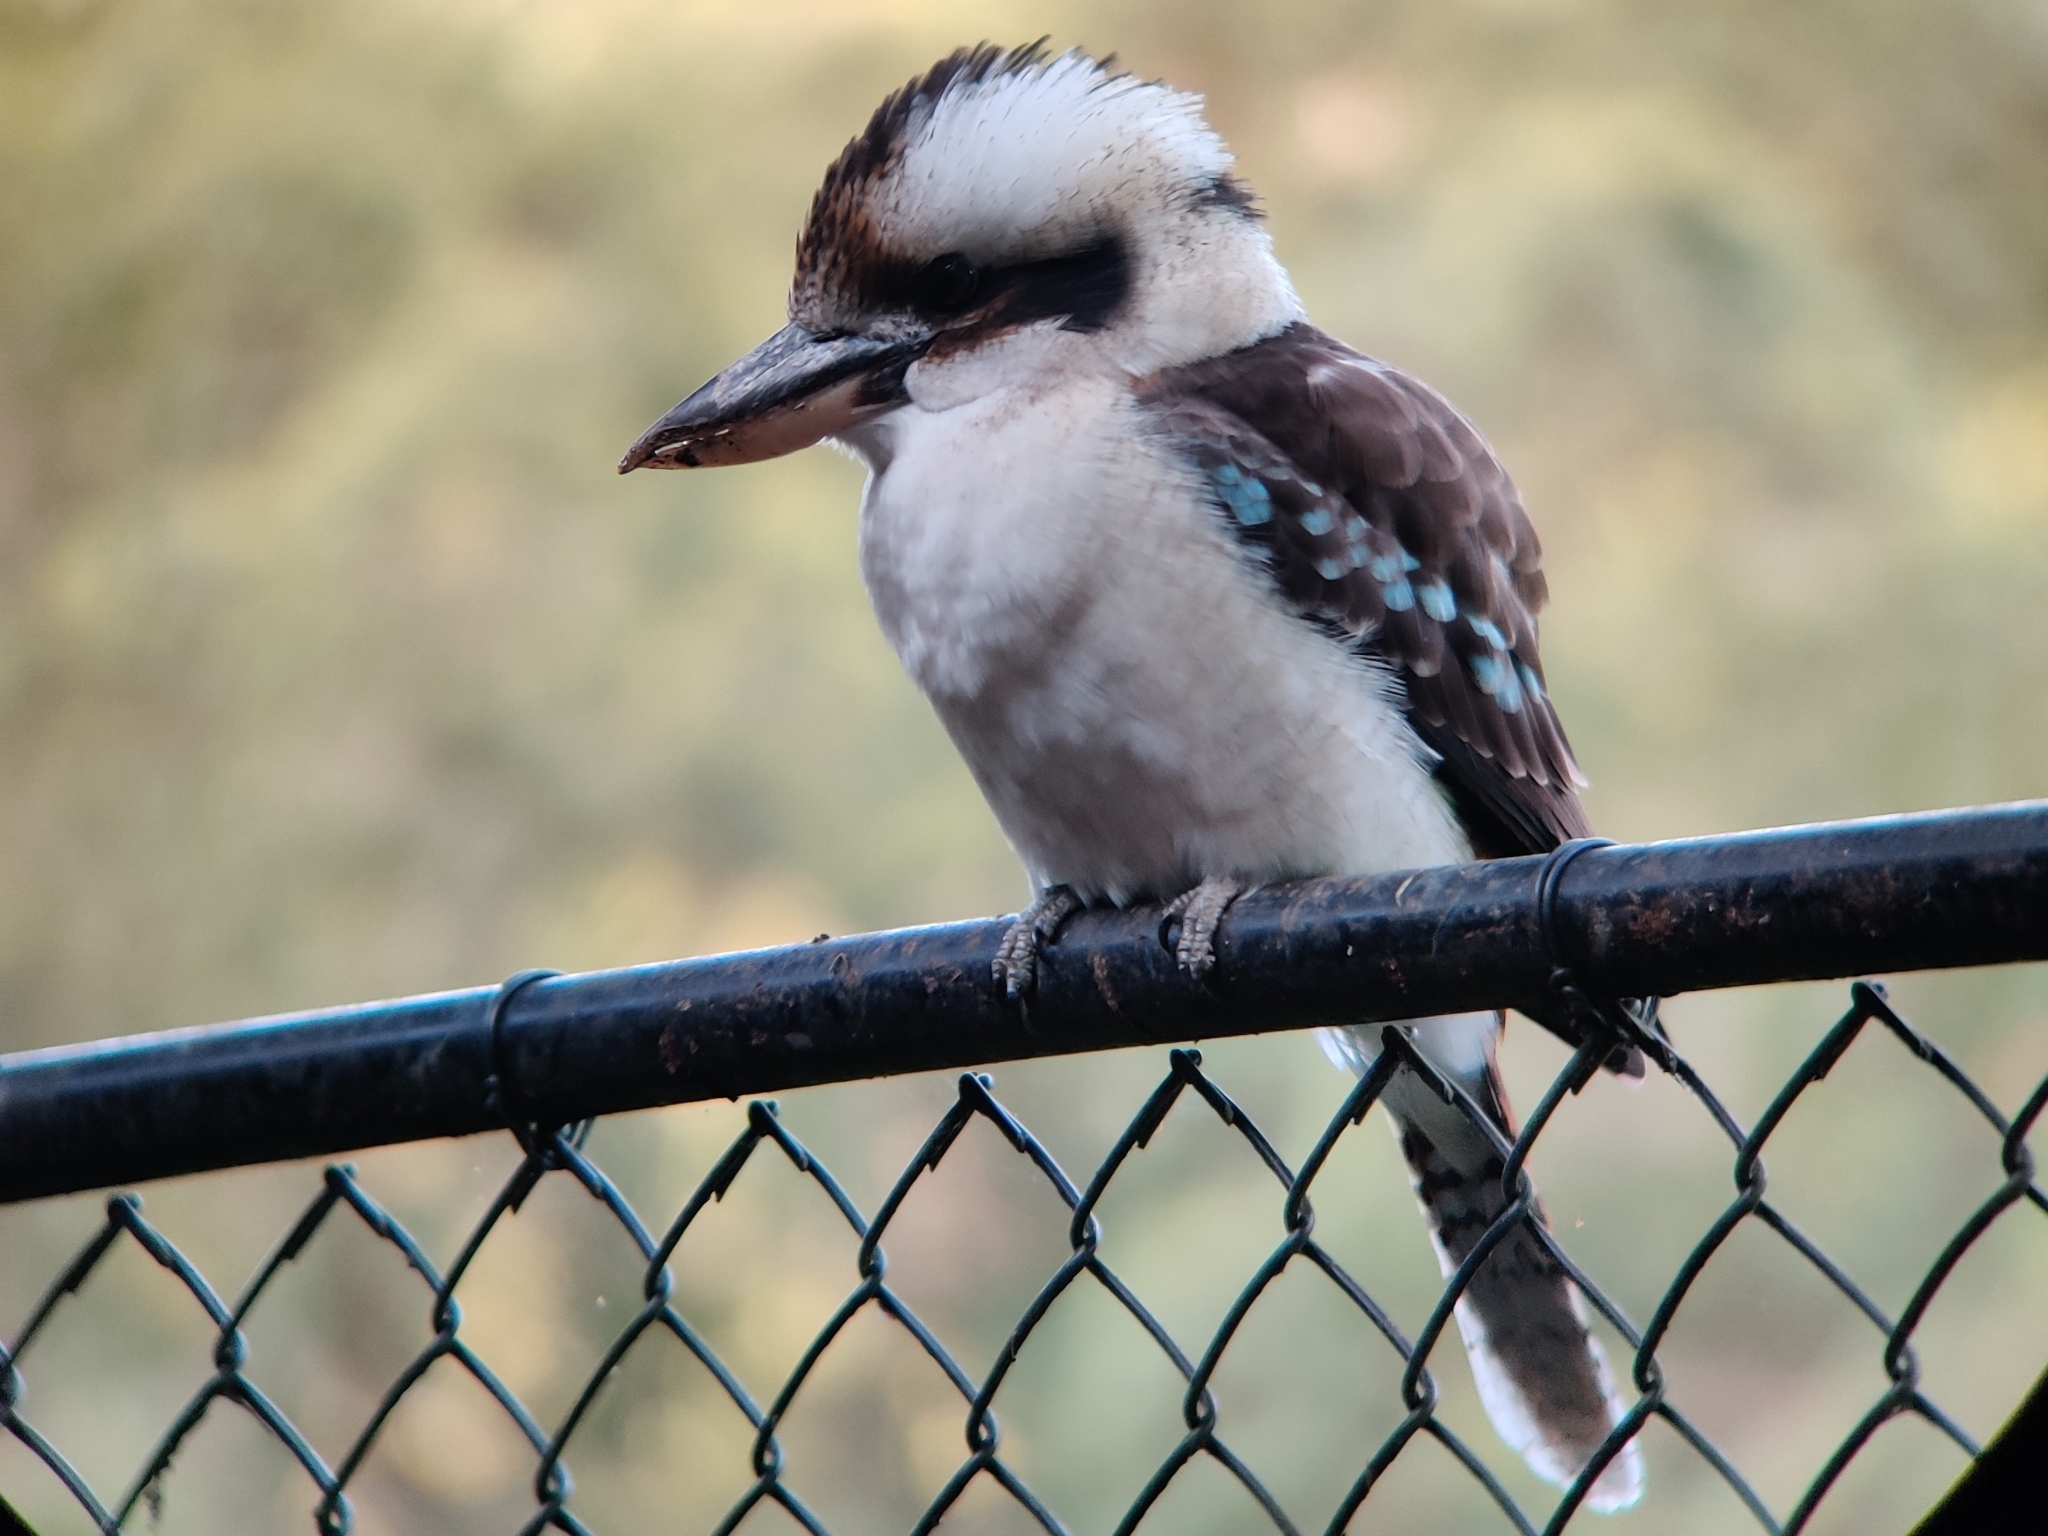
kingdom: Animalia
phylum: Chordata
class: Aves
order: Coraciiformes
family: Alcedinidae
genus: Dacelo
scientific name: Dacelo novaeguineae
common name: Laughing kookaburra
